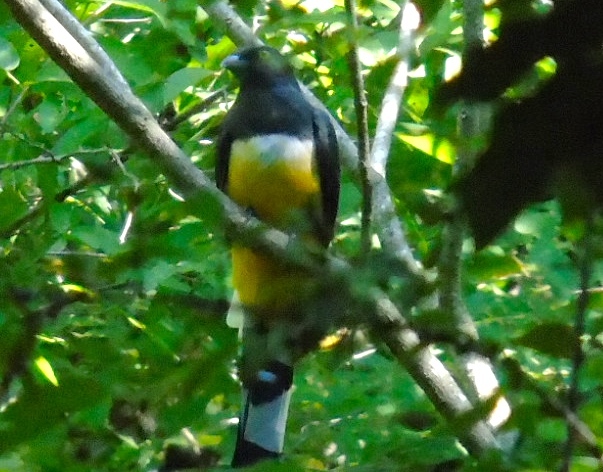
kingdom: Animalia
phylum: Chordata
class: Aves
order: Trogoniformes
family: Trogonidae
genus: Trogon
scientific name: Trogon citreolus
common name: Citreoline trogon
